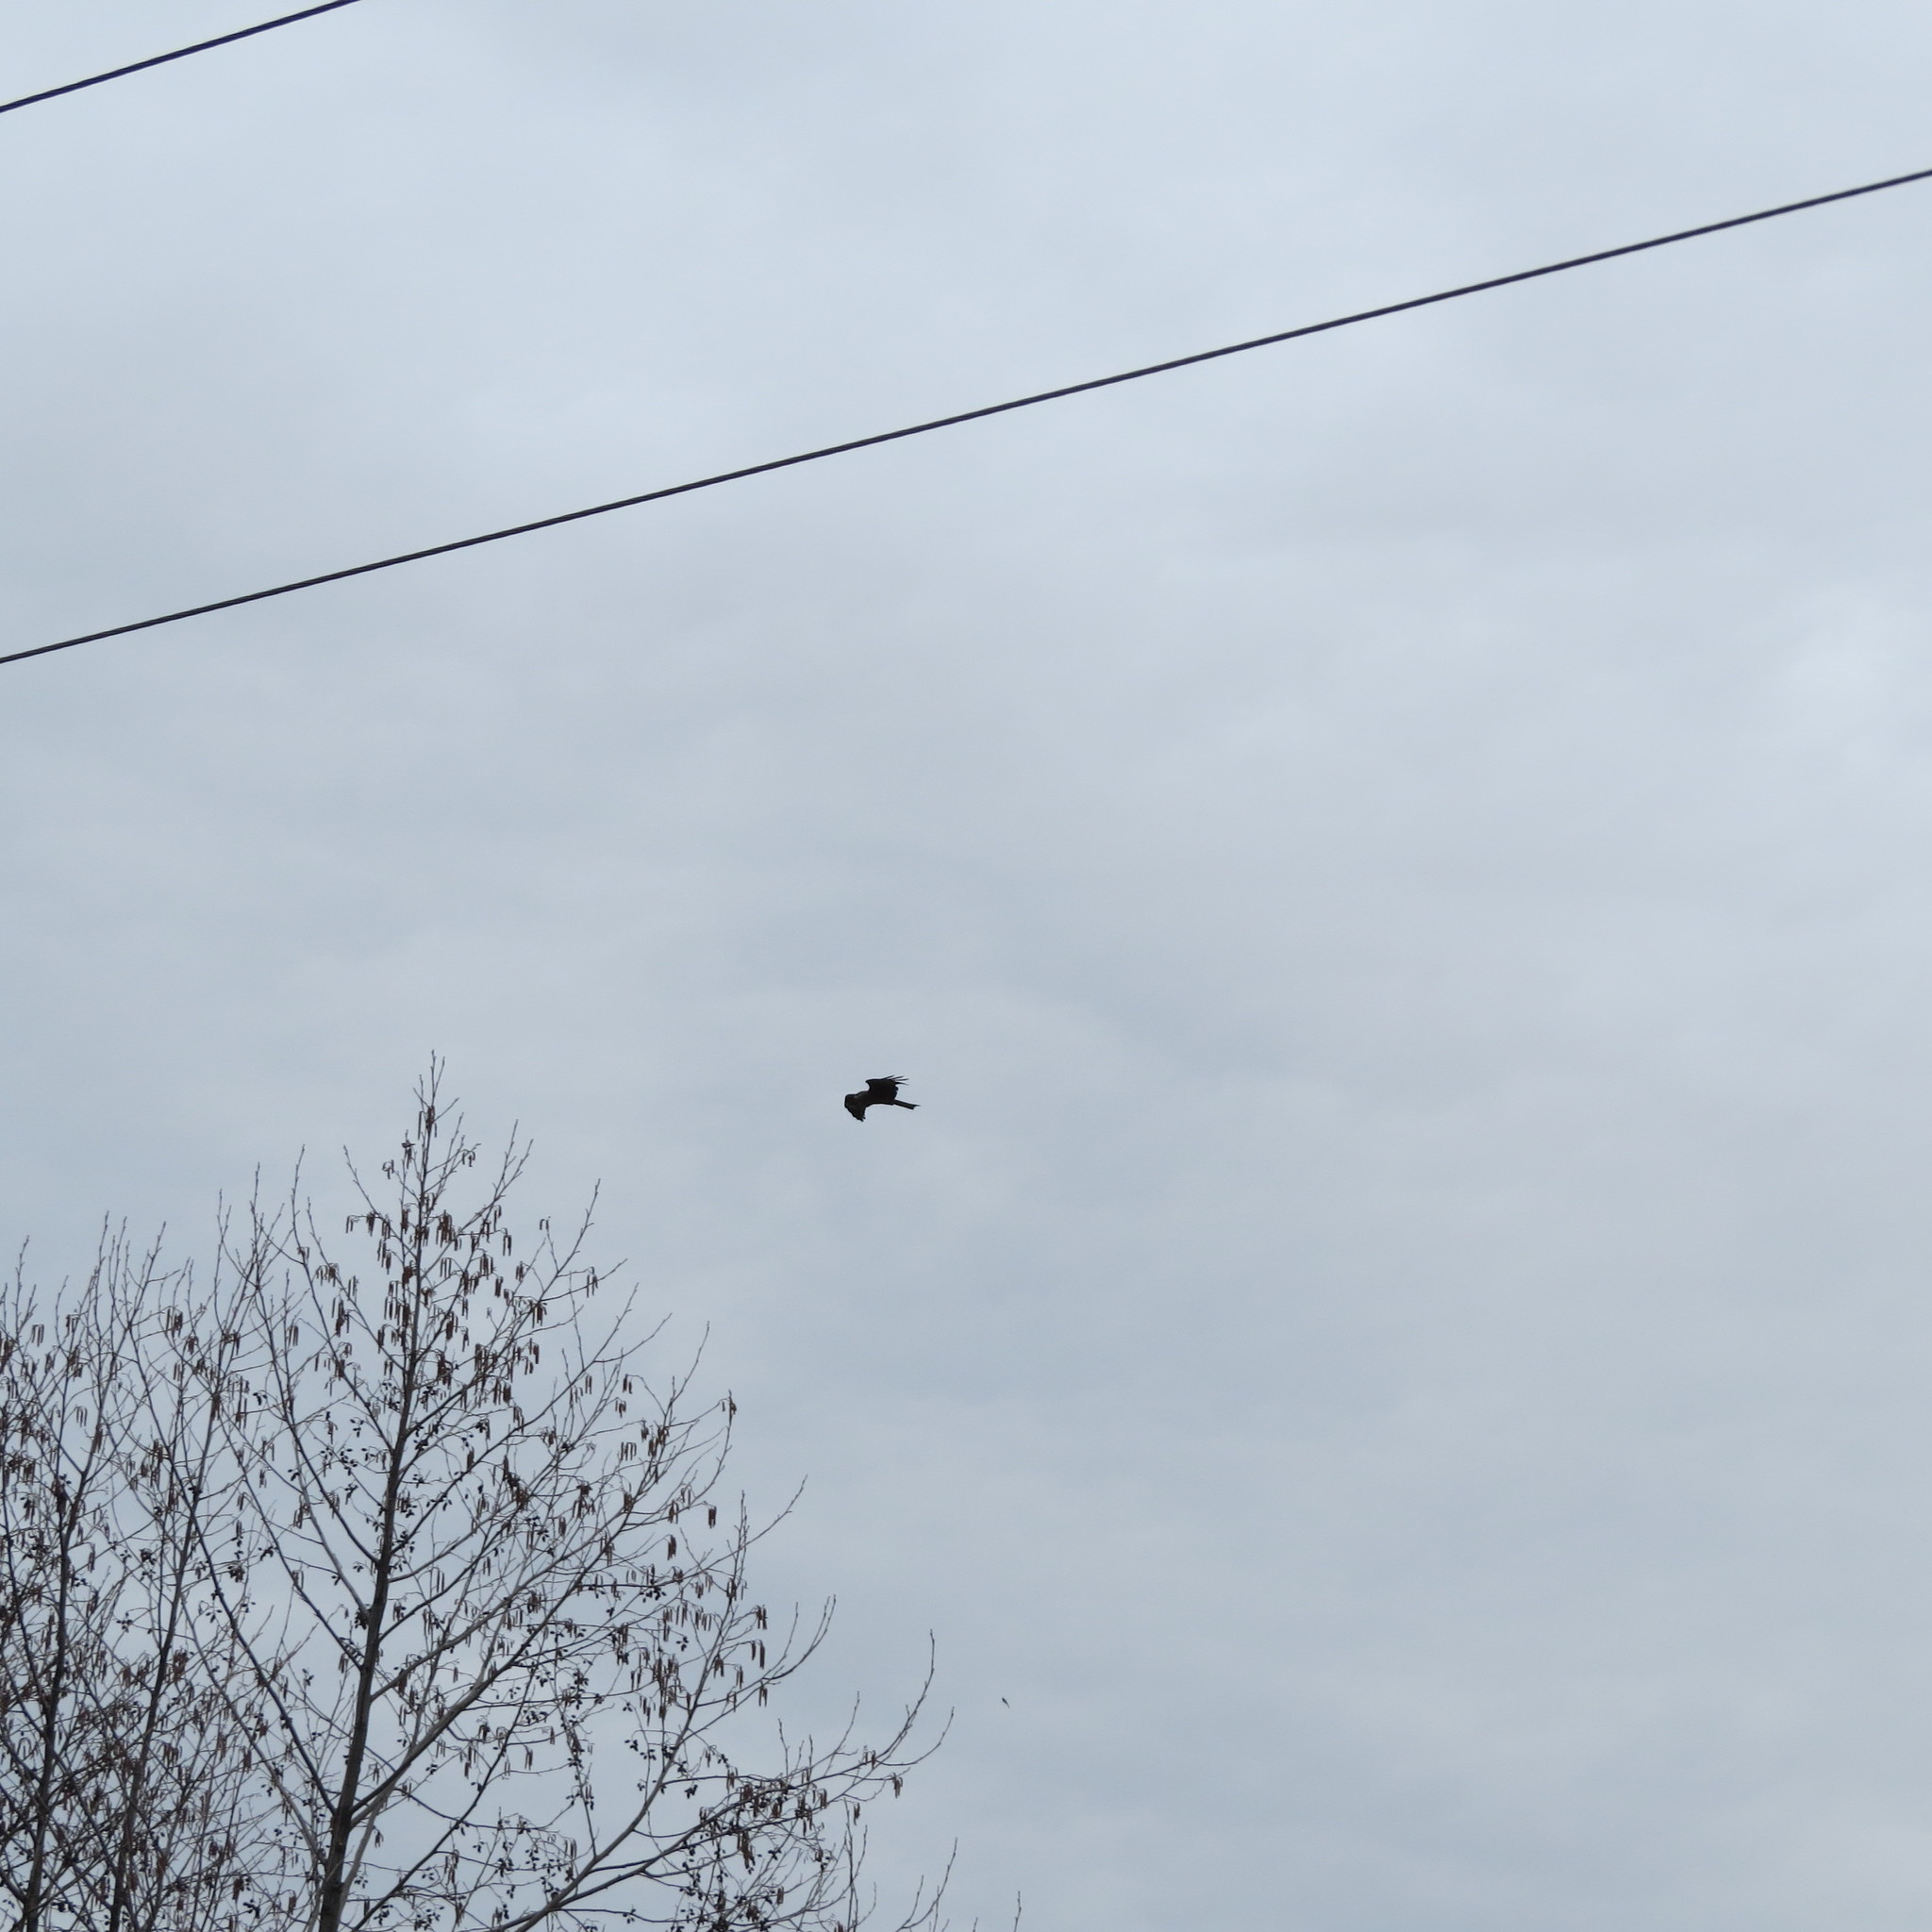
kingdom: Animalia
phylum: Chordata
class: Aves
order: Accipitriformes
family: Accipitridae
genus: Milvus
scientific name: Milvus migrans
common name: Black kite
